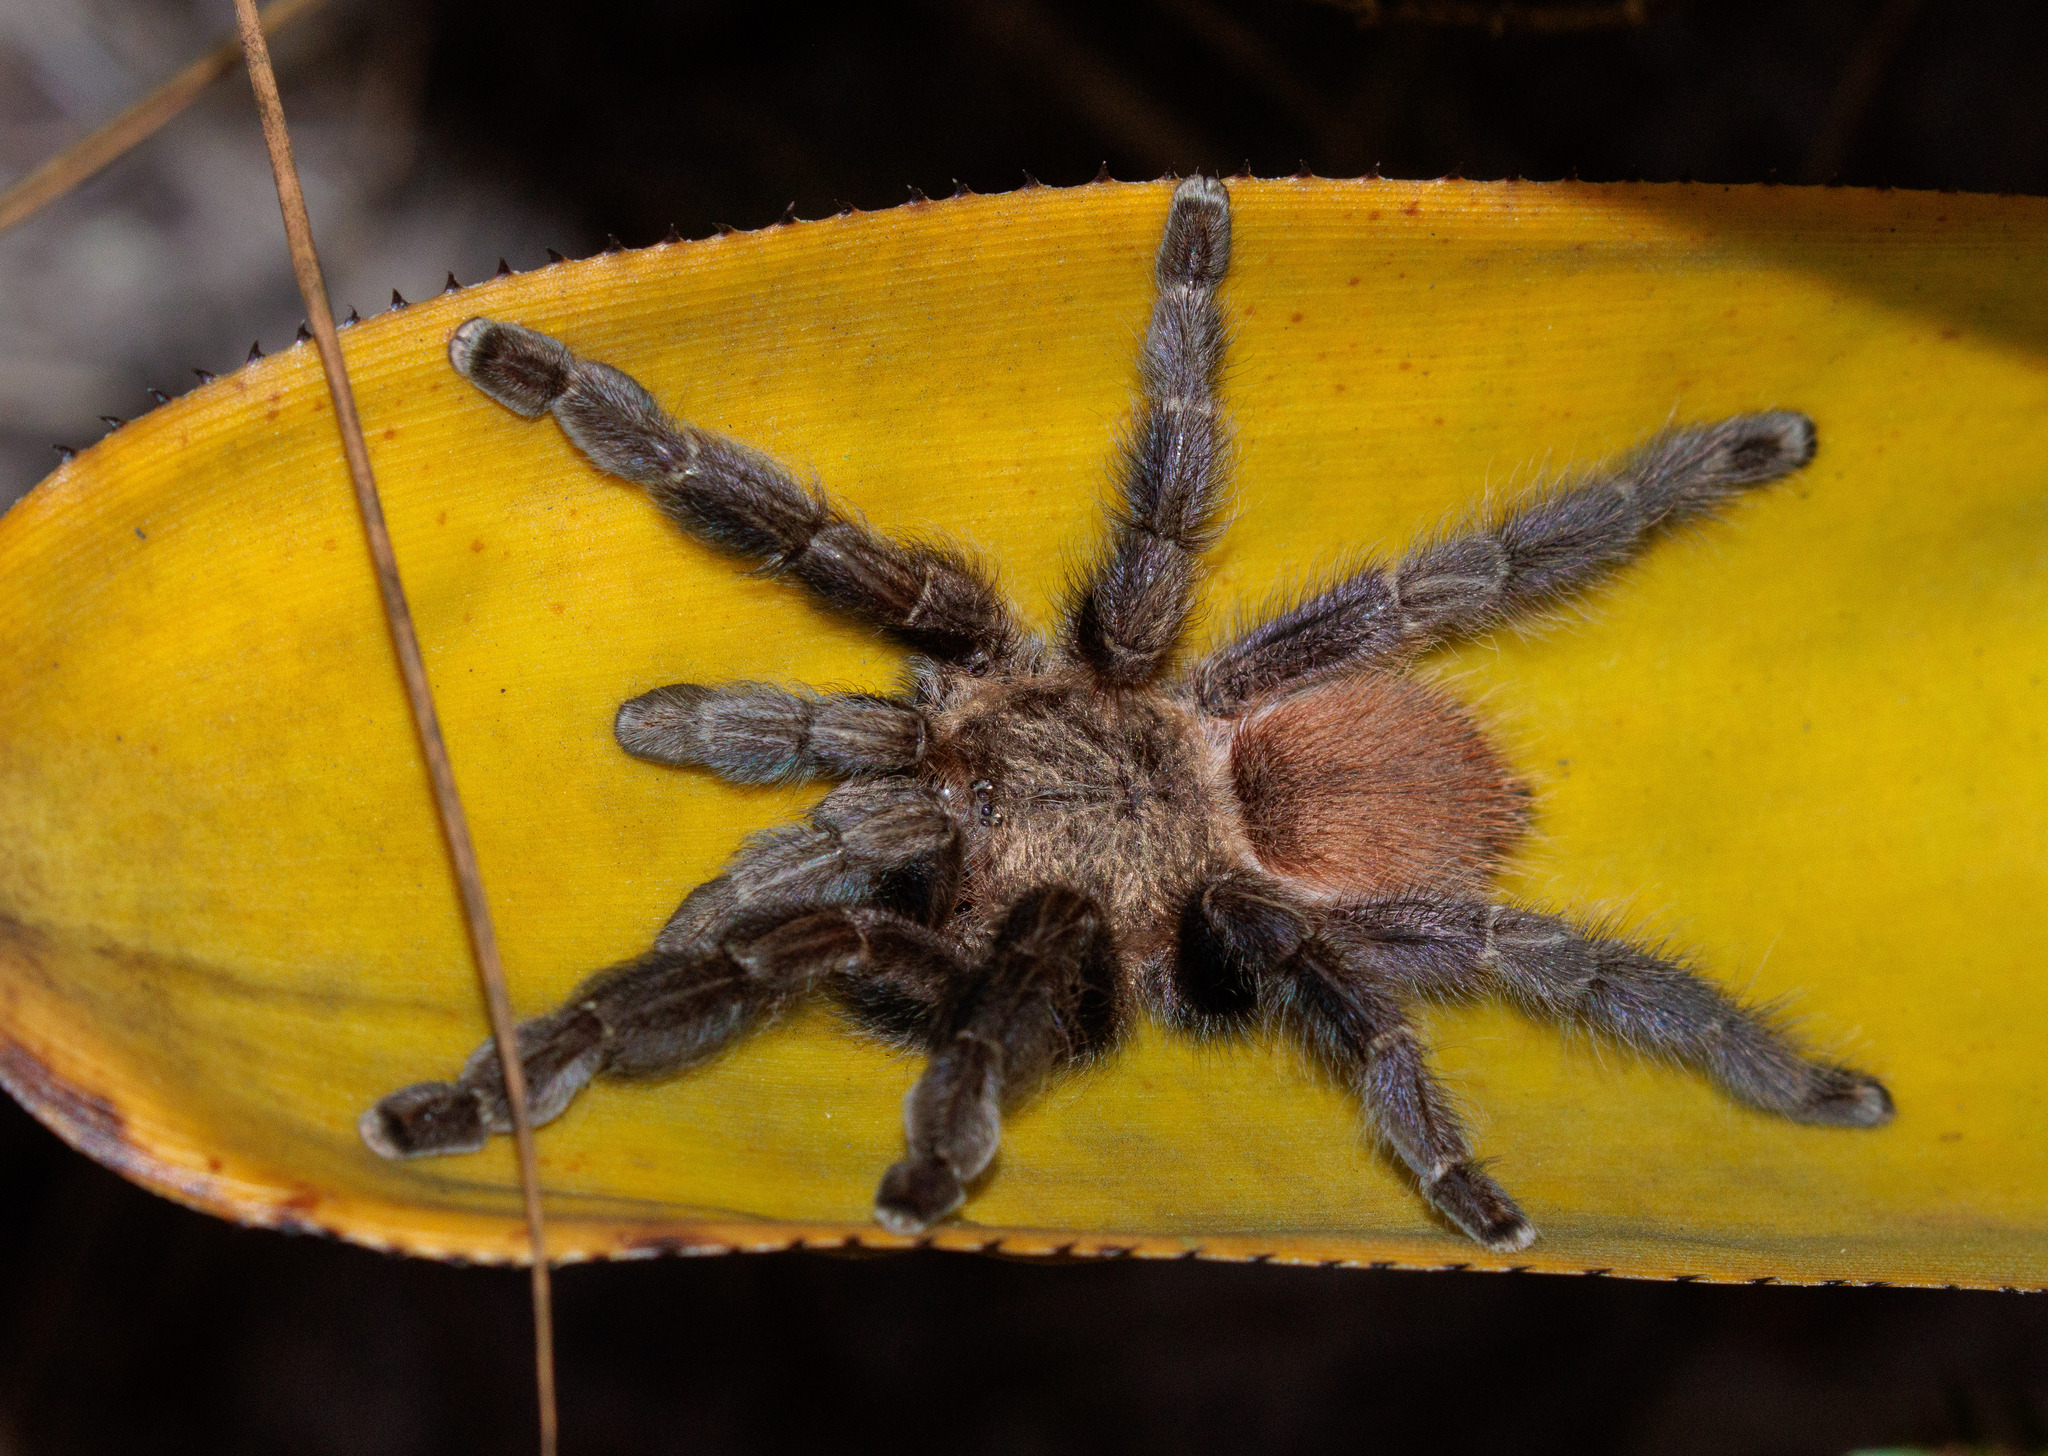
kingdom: Animalia
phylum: Arthropoda
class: Arachnida
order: Araneae
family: Theraphosidae
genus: Pachistopelma
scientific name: Pachistopelma rufonigrum
